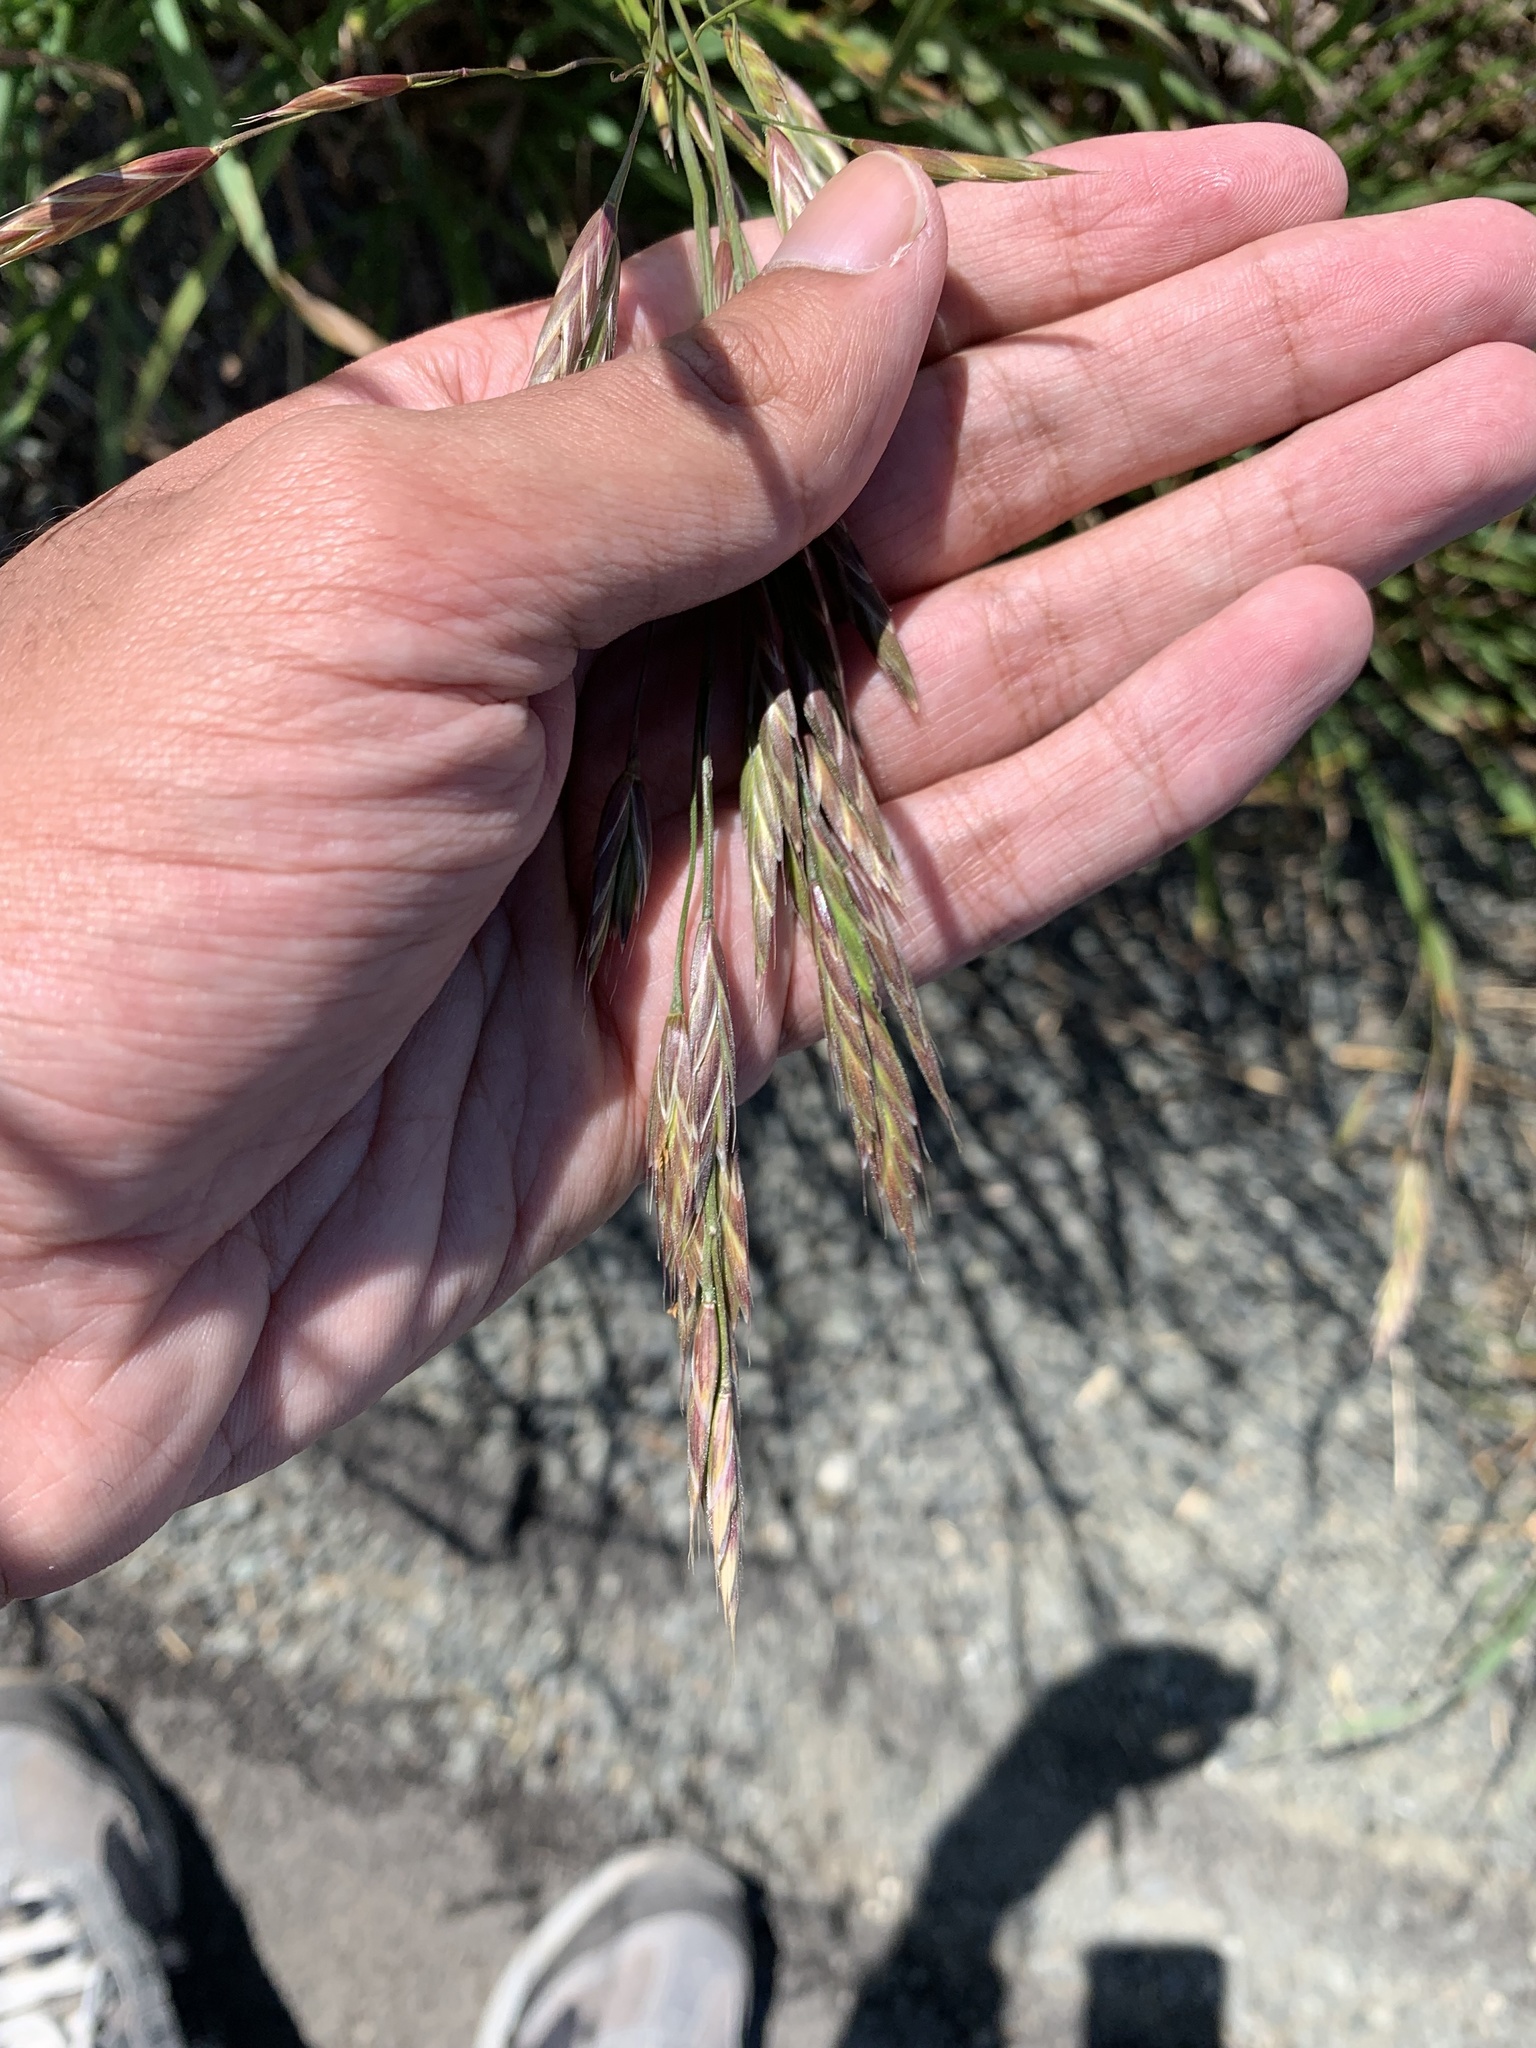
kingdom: Plantae
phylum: Tracheophyta
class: Liliopsida
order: Poales
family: Poaceae
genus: Bromus
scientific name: Bromus carinatus
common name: Mountain brome
